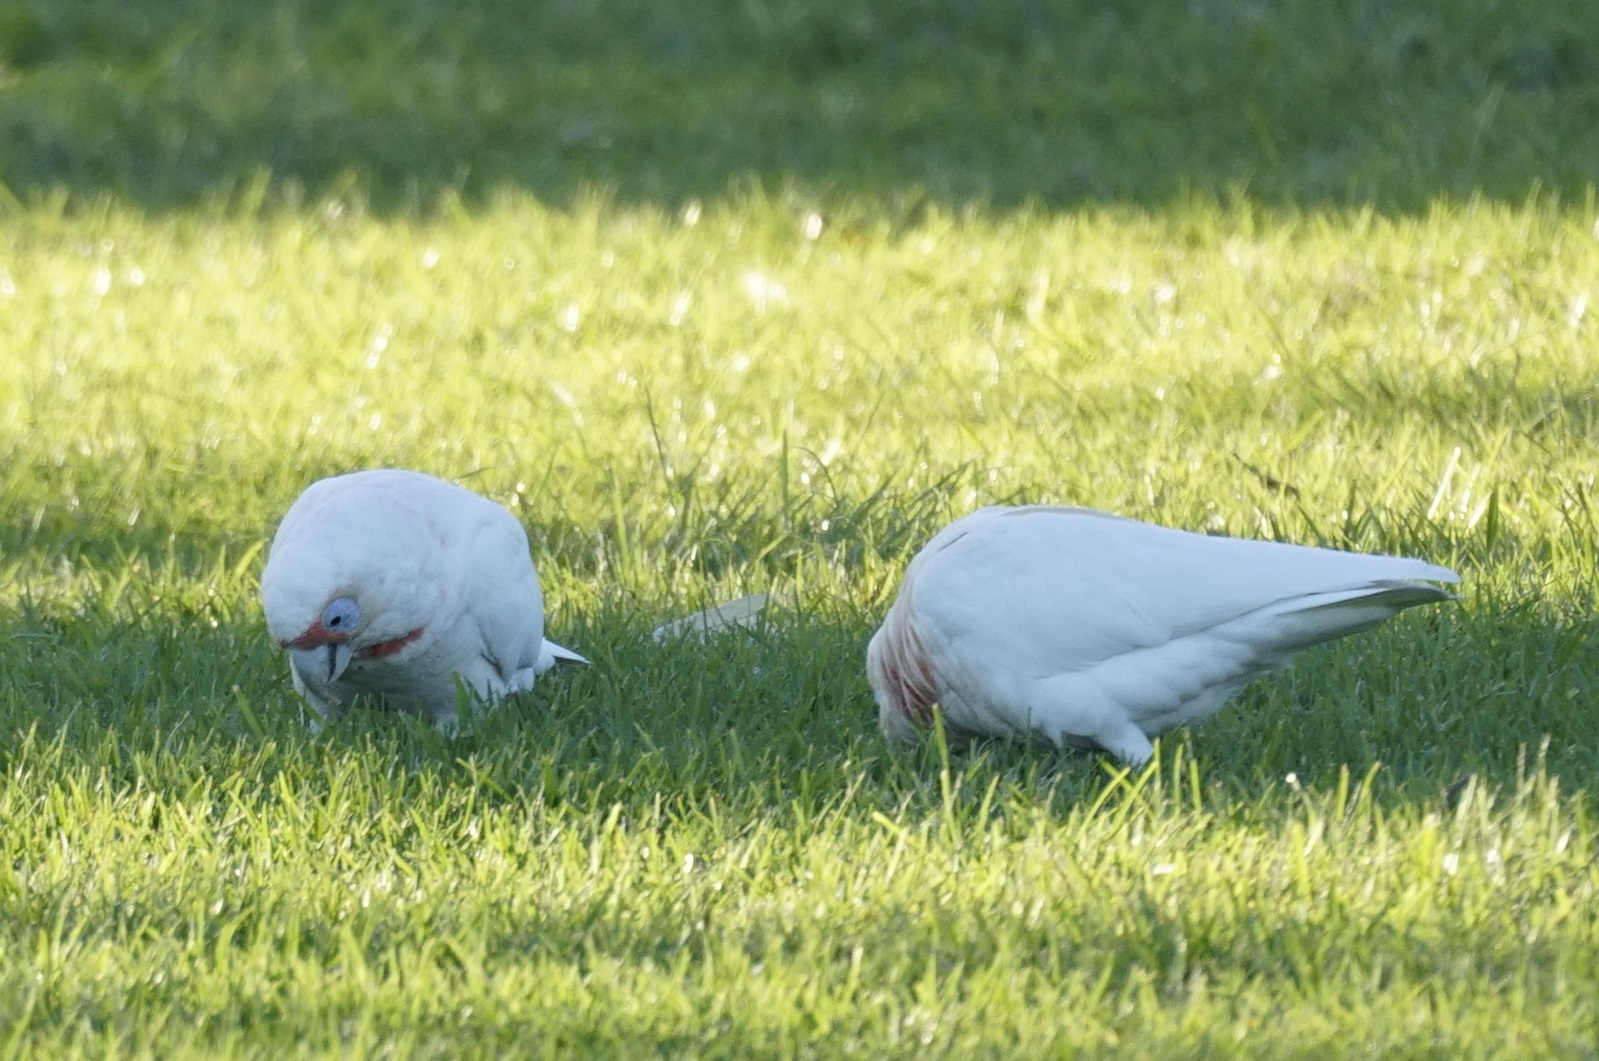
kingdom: Animalia
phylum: Chordata
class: Aves
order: Psittaciformes
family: Psittacidae
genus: Cacatua
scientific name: Cacatua tenuirostris
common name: Long-billed corella
